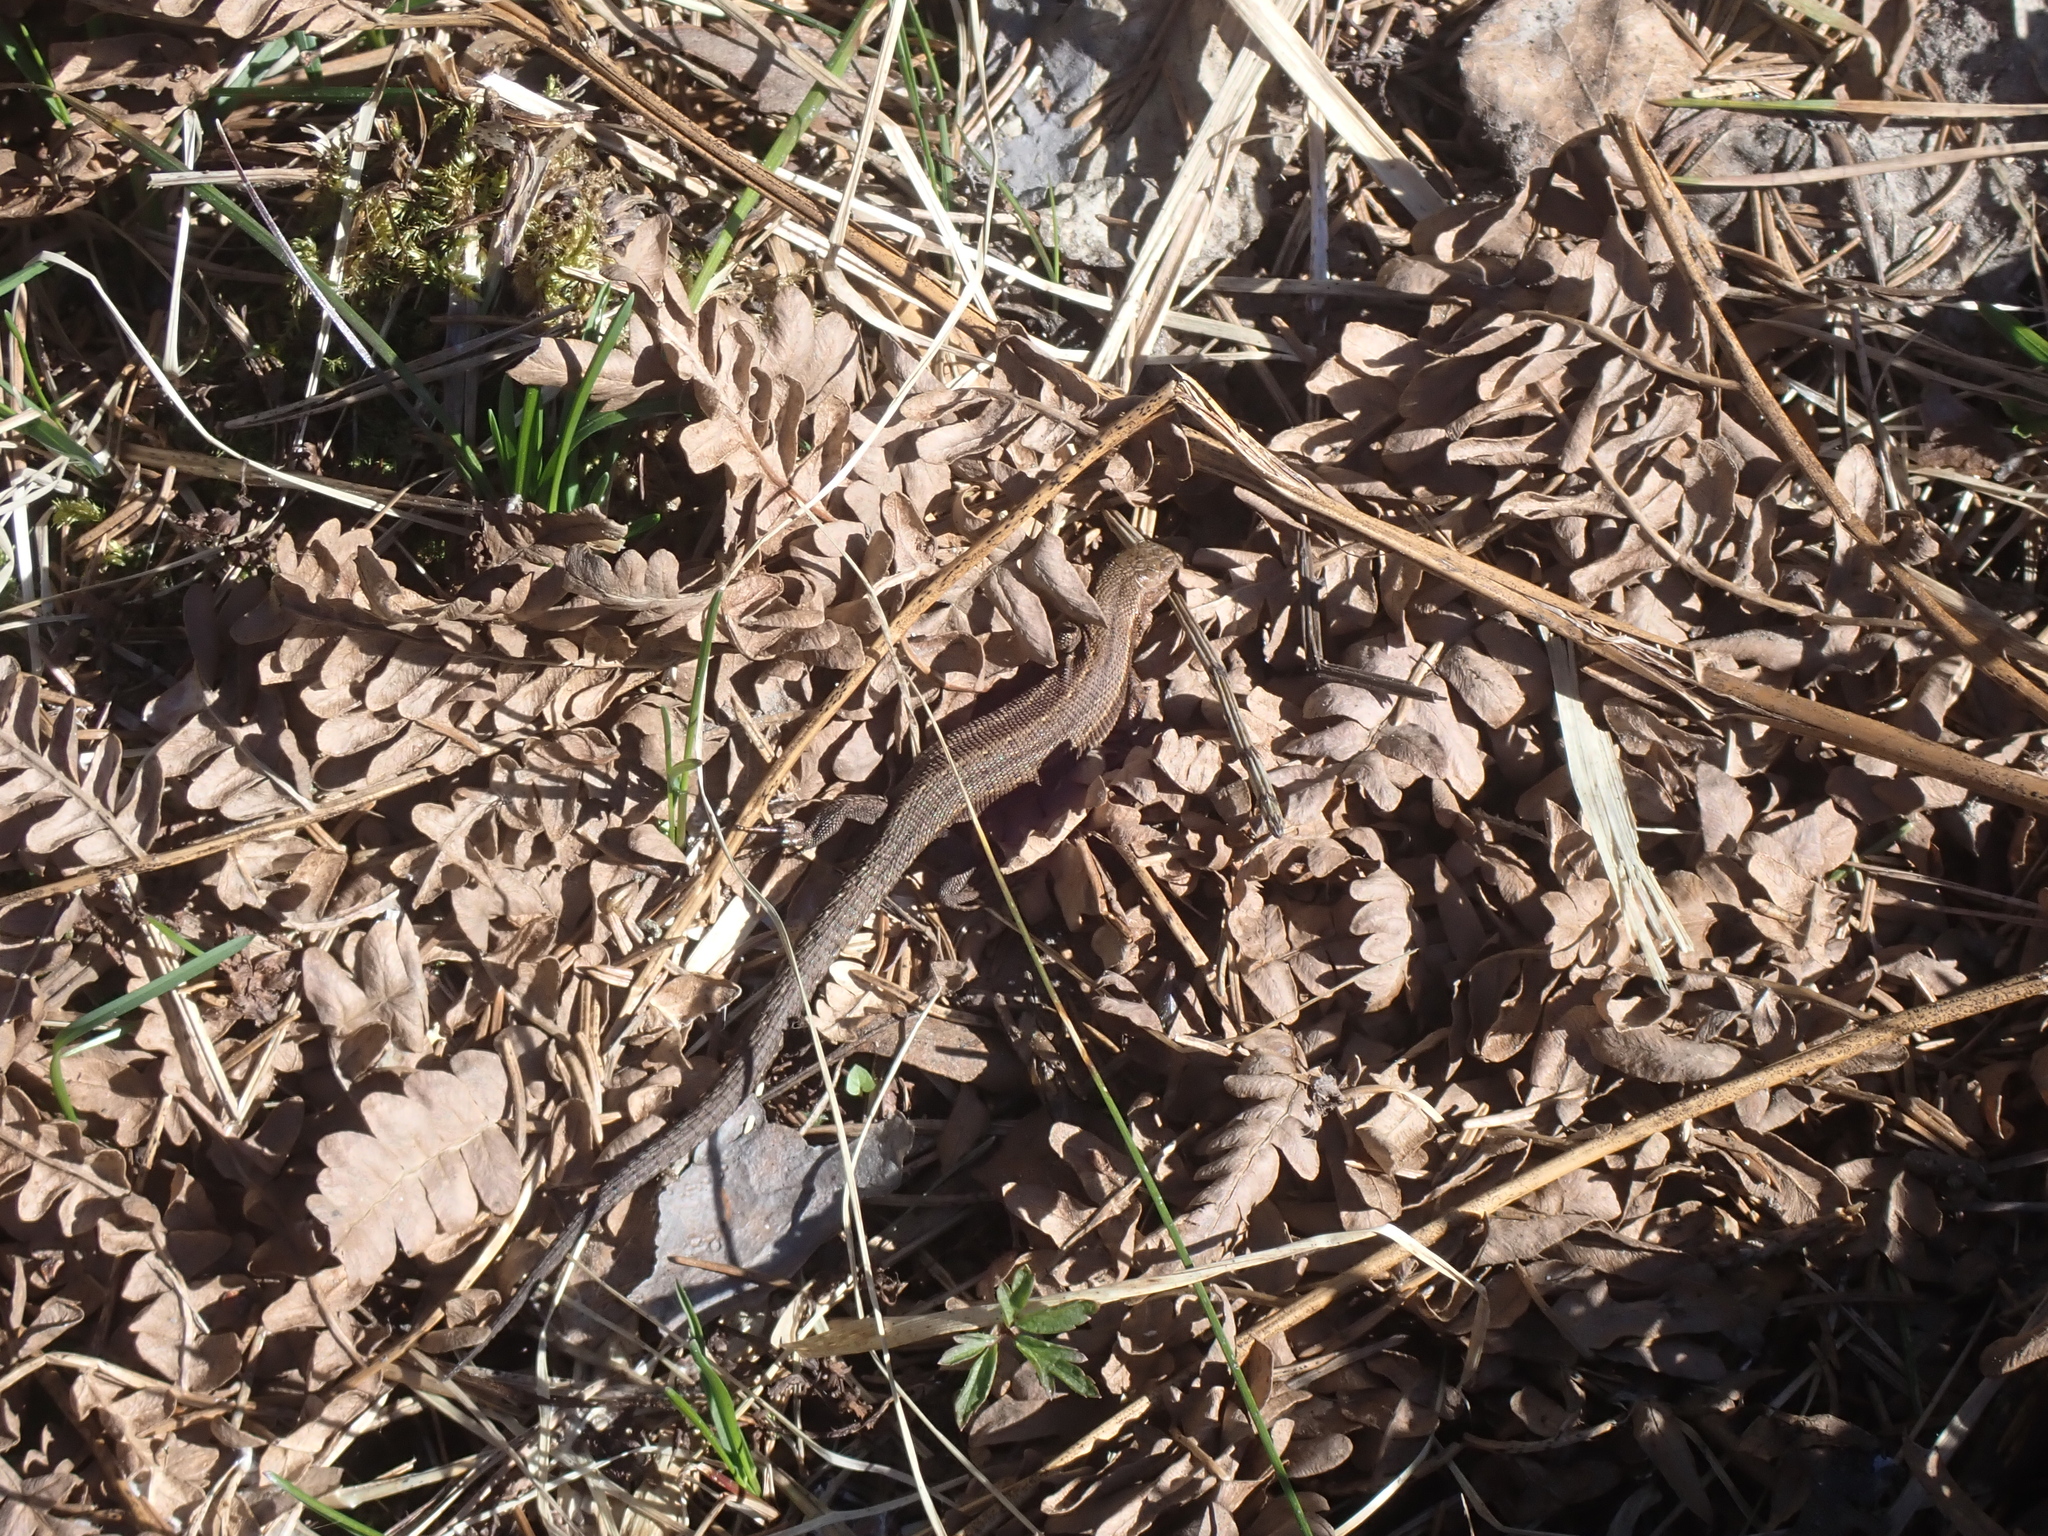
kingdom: Animalia
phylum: Chordata
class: Squamata
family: Lacertidae
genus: Zootoca
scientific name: Zootoca vivipara
